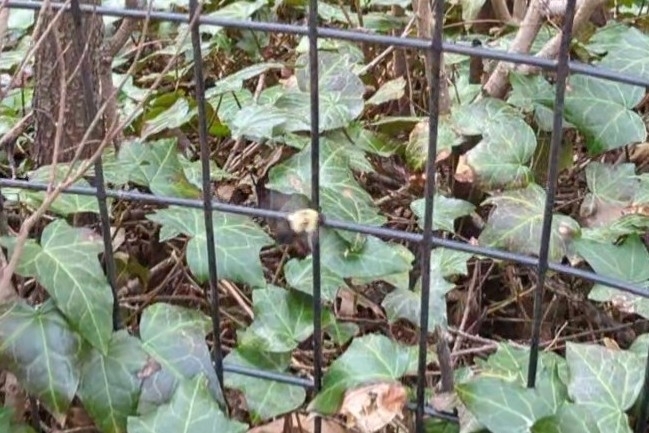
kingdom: Animalia
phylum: Arthropoda
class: Insecta
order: Hymenoptera
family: Apidae
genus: Bombus
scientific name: Bombus impatiens
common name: Common eastern bumble bee
